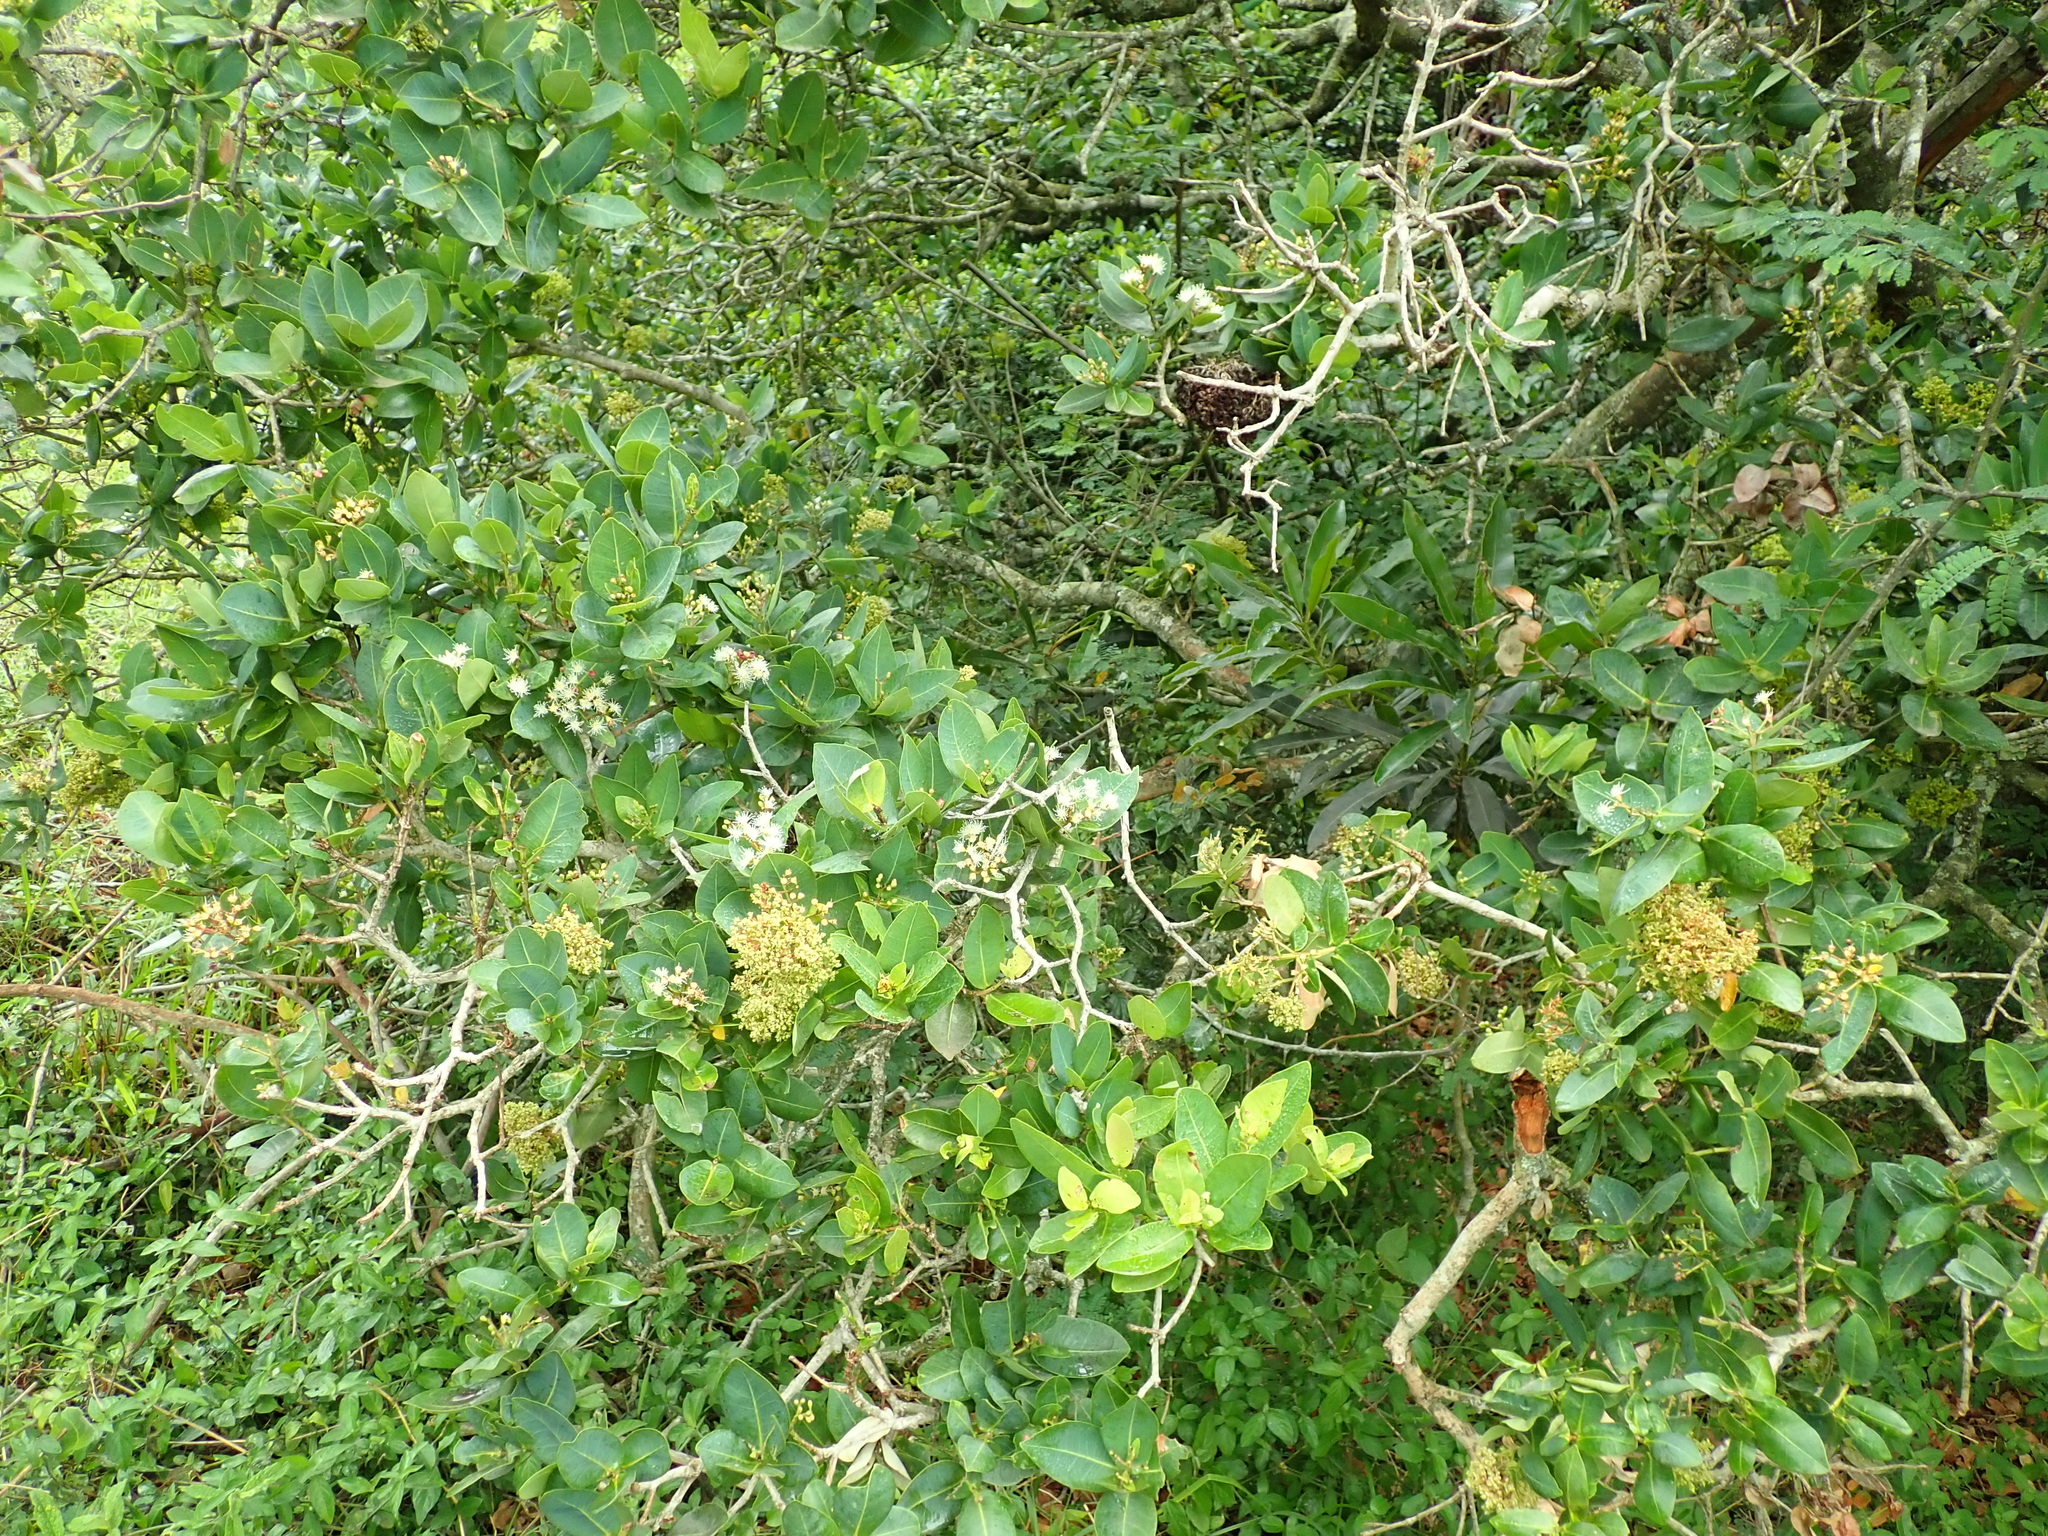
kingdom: Plantae
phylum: Tracheophyta
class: Magnoliopsida
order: Myrtales
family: Myrtaceae
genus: Syzygium
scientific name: Syzygium cordatum
